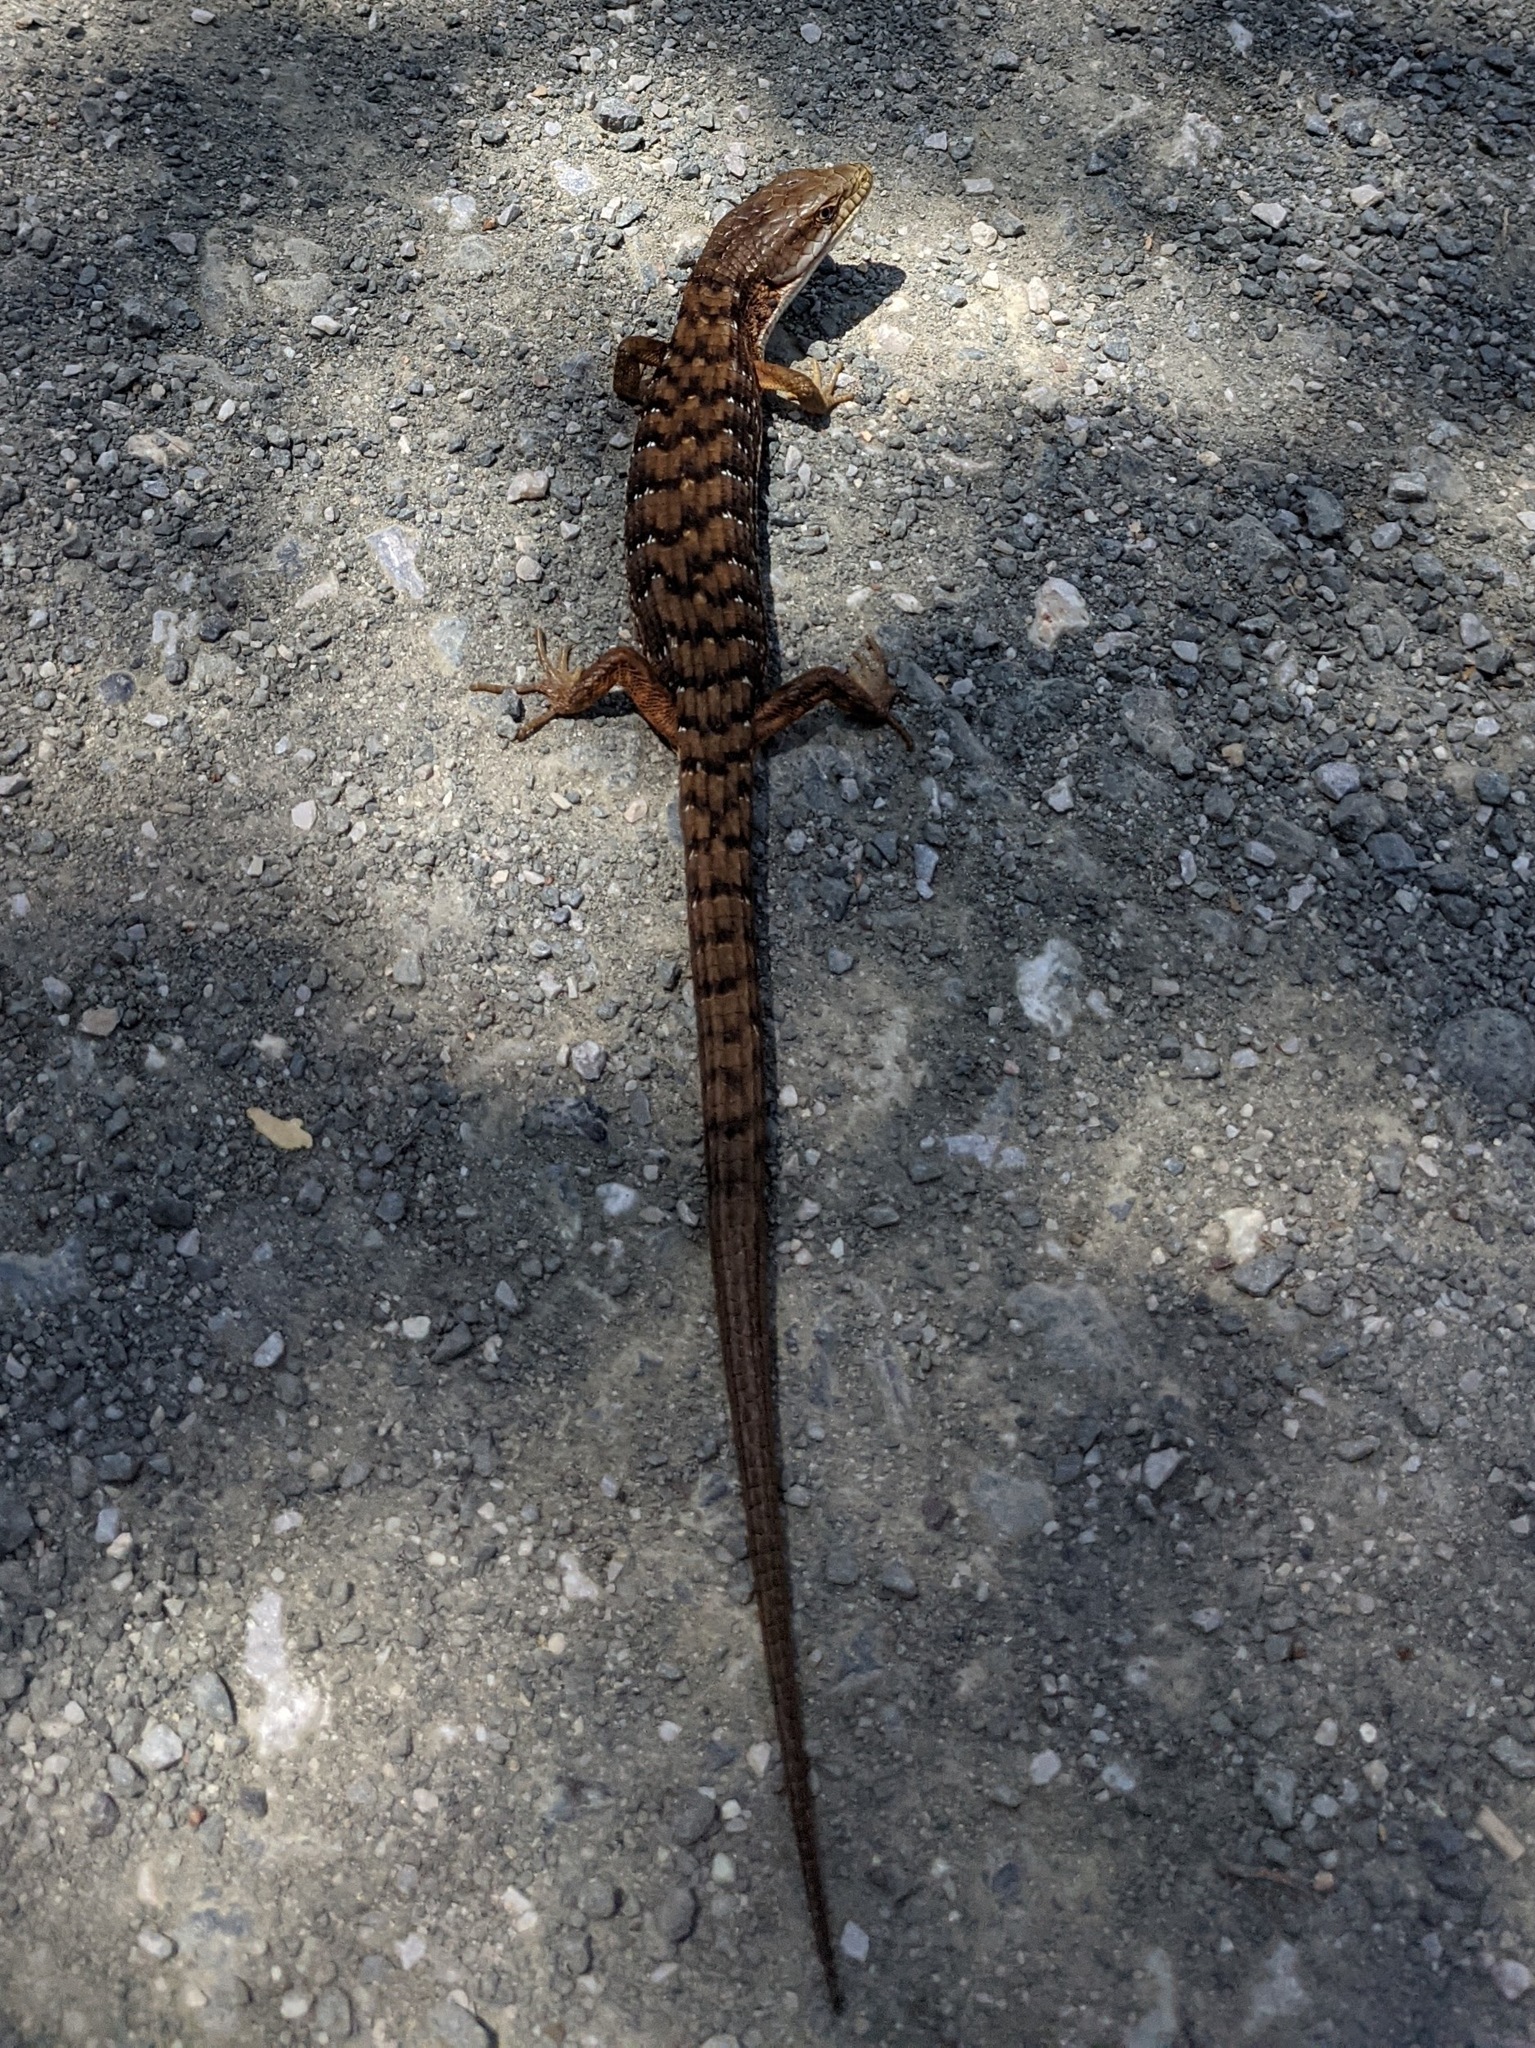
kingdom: Animalia
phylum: Chordata
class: Squamata
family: Anguidae
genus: Elgaria
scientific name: Elgaria multicarinata
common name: Southern alligator lizard
